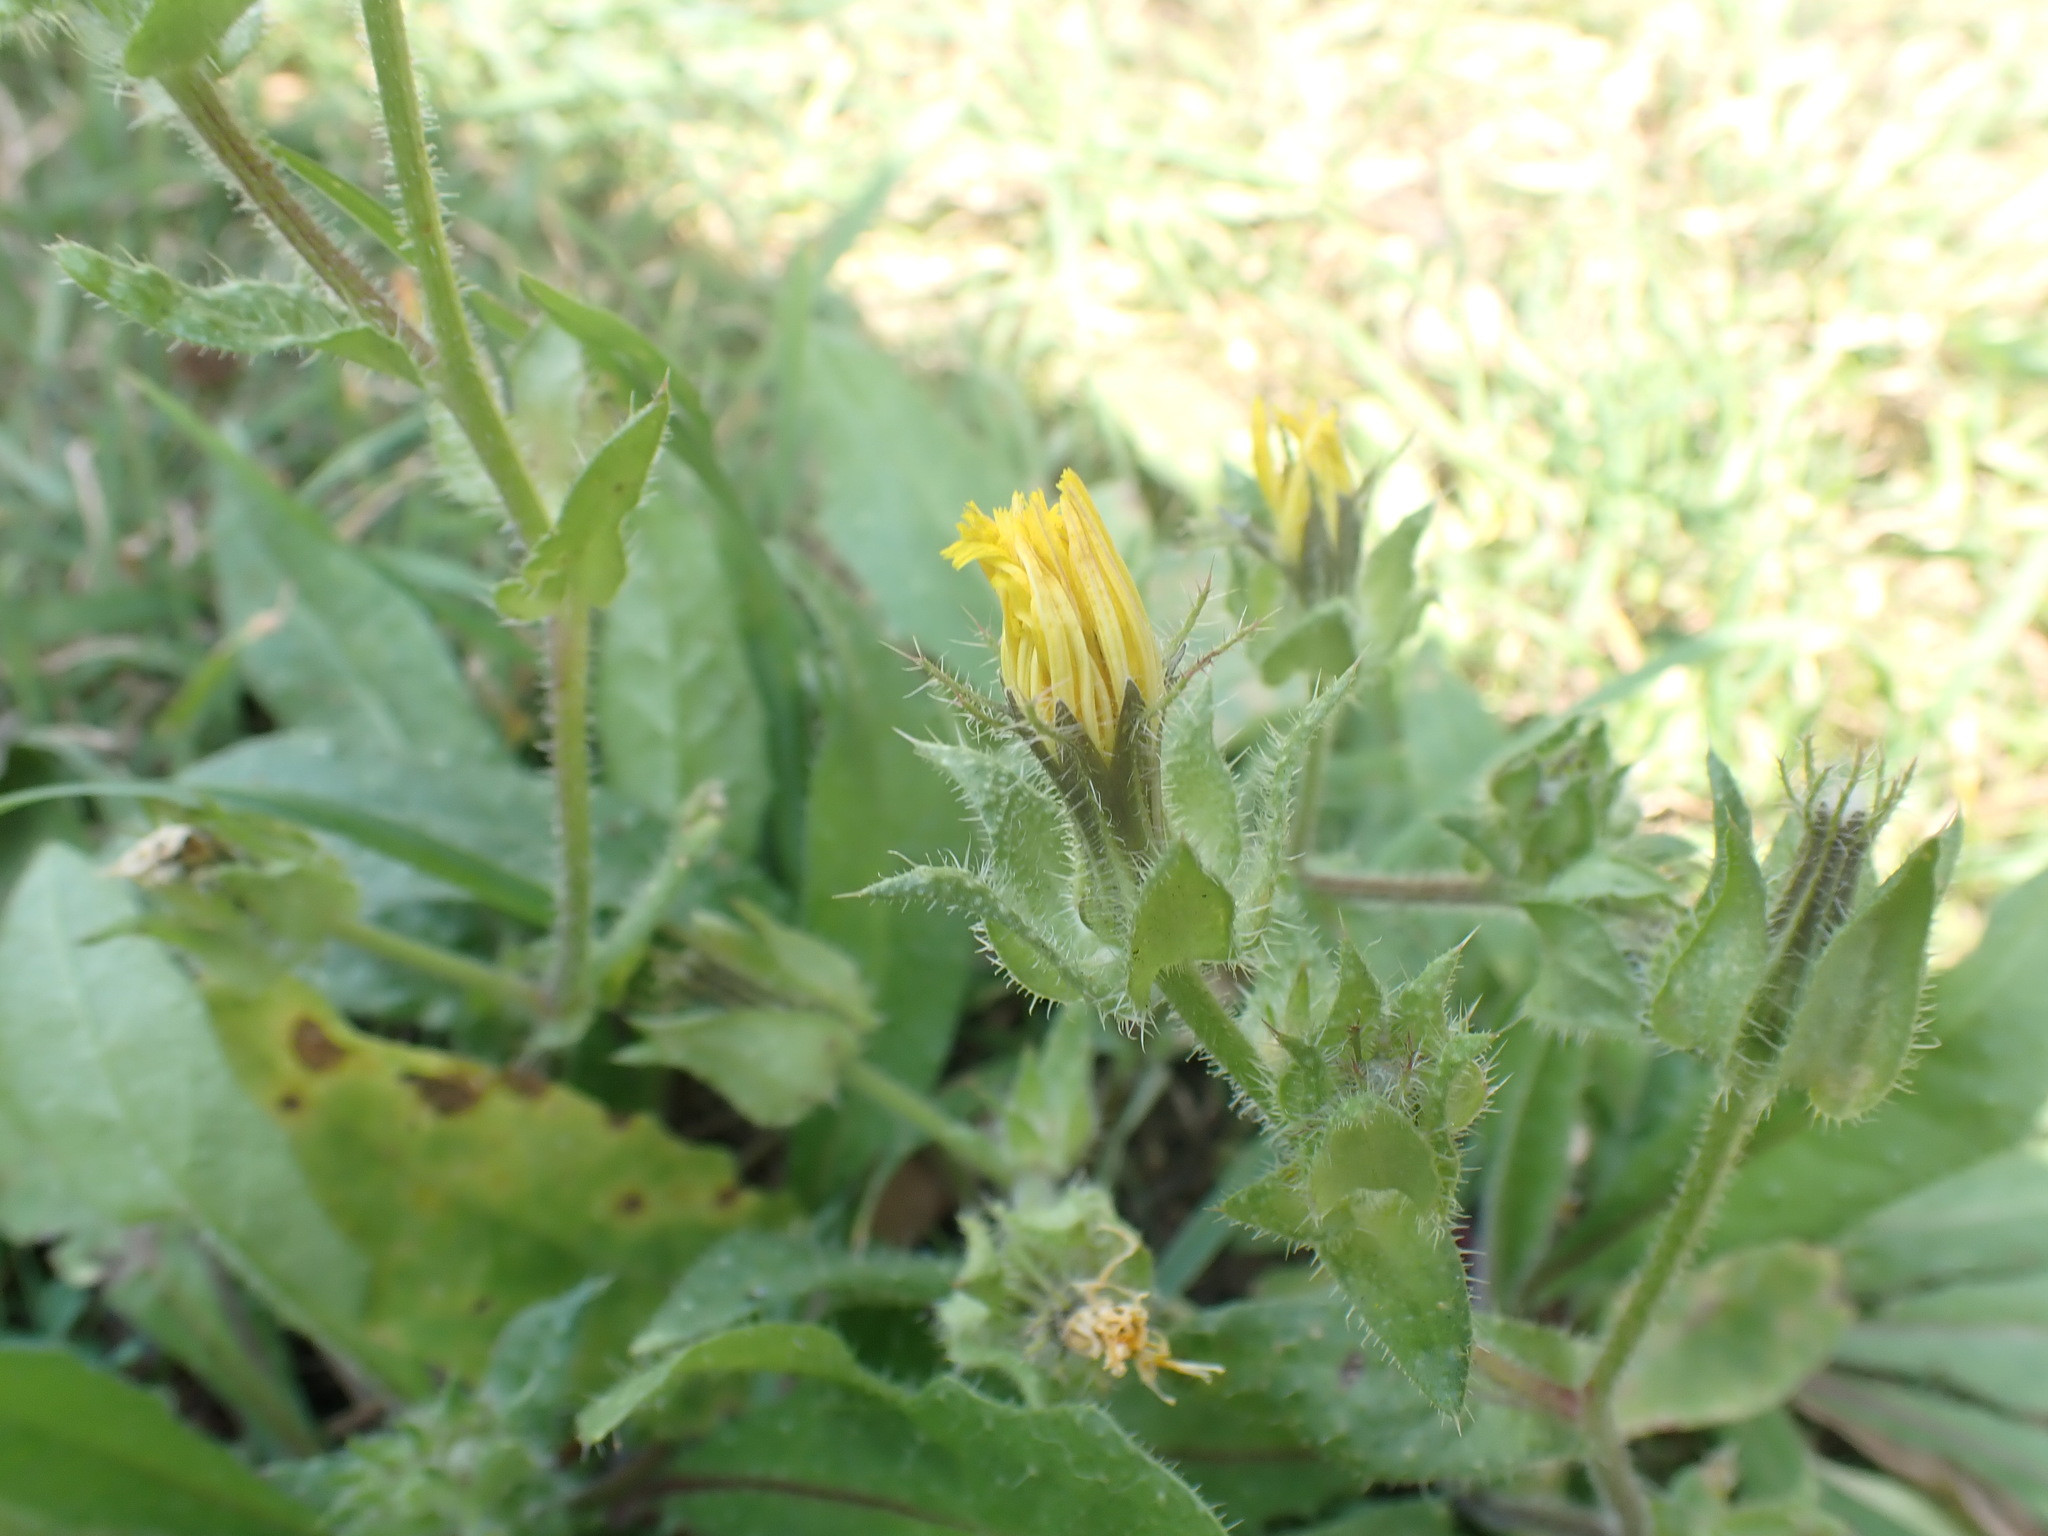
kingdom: Plantae
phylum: Tracheophyta
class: Magnoliopsida
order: Asterales
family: Asteraceae
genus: Helminthotheca
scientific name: Helminthotheca echioides
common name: Ox-tongue
